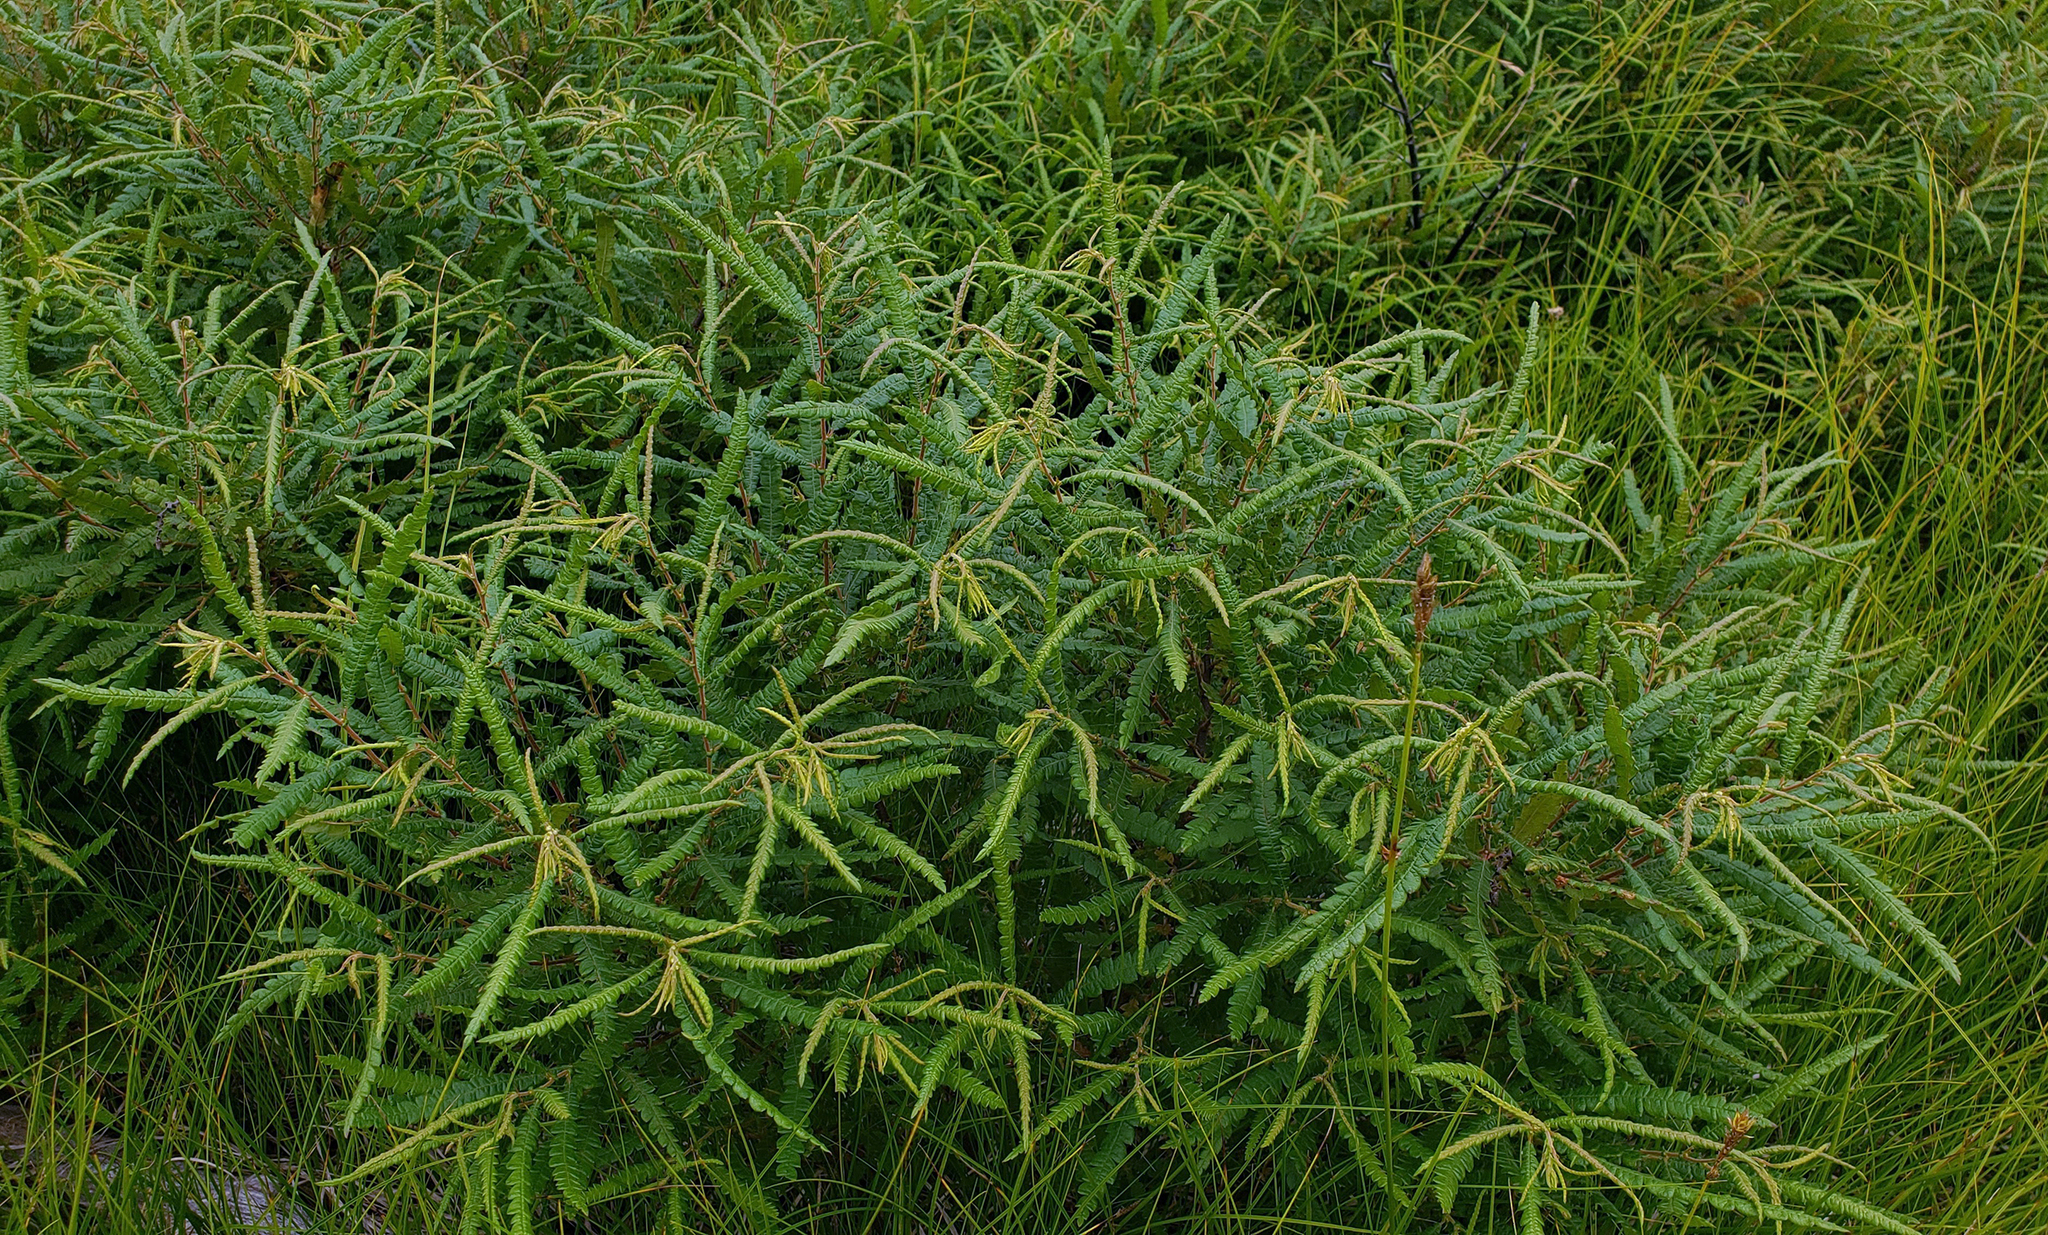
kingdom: Plantae
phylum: Tracheophyta
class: Magnoliopsida
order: Fagales
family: Myricaceae
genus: Comptonia
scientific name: Comptonia peregrina
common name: Sweet-fern
